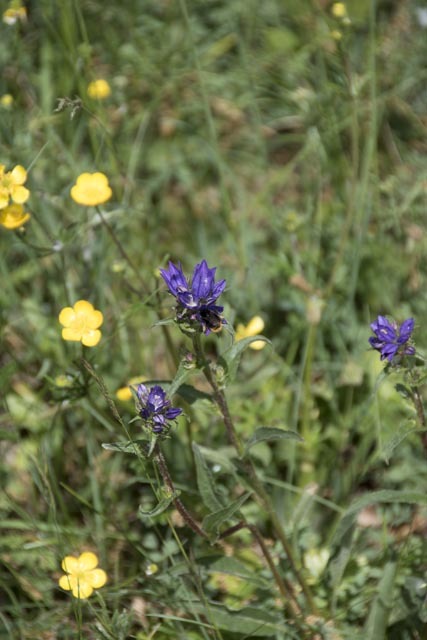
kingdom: Plantae
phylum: Tracheophyta
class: Magnoliopsida
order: Asterales
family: Campanulaceae
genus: Campanula
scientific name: Campanula glomerata
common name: Clustered bellflower
